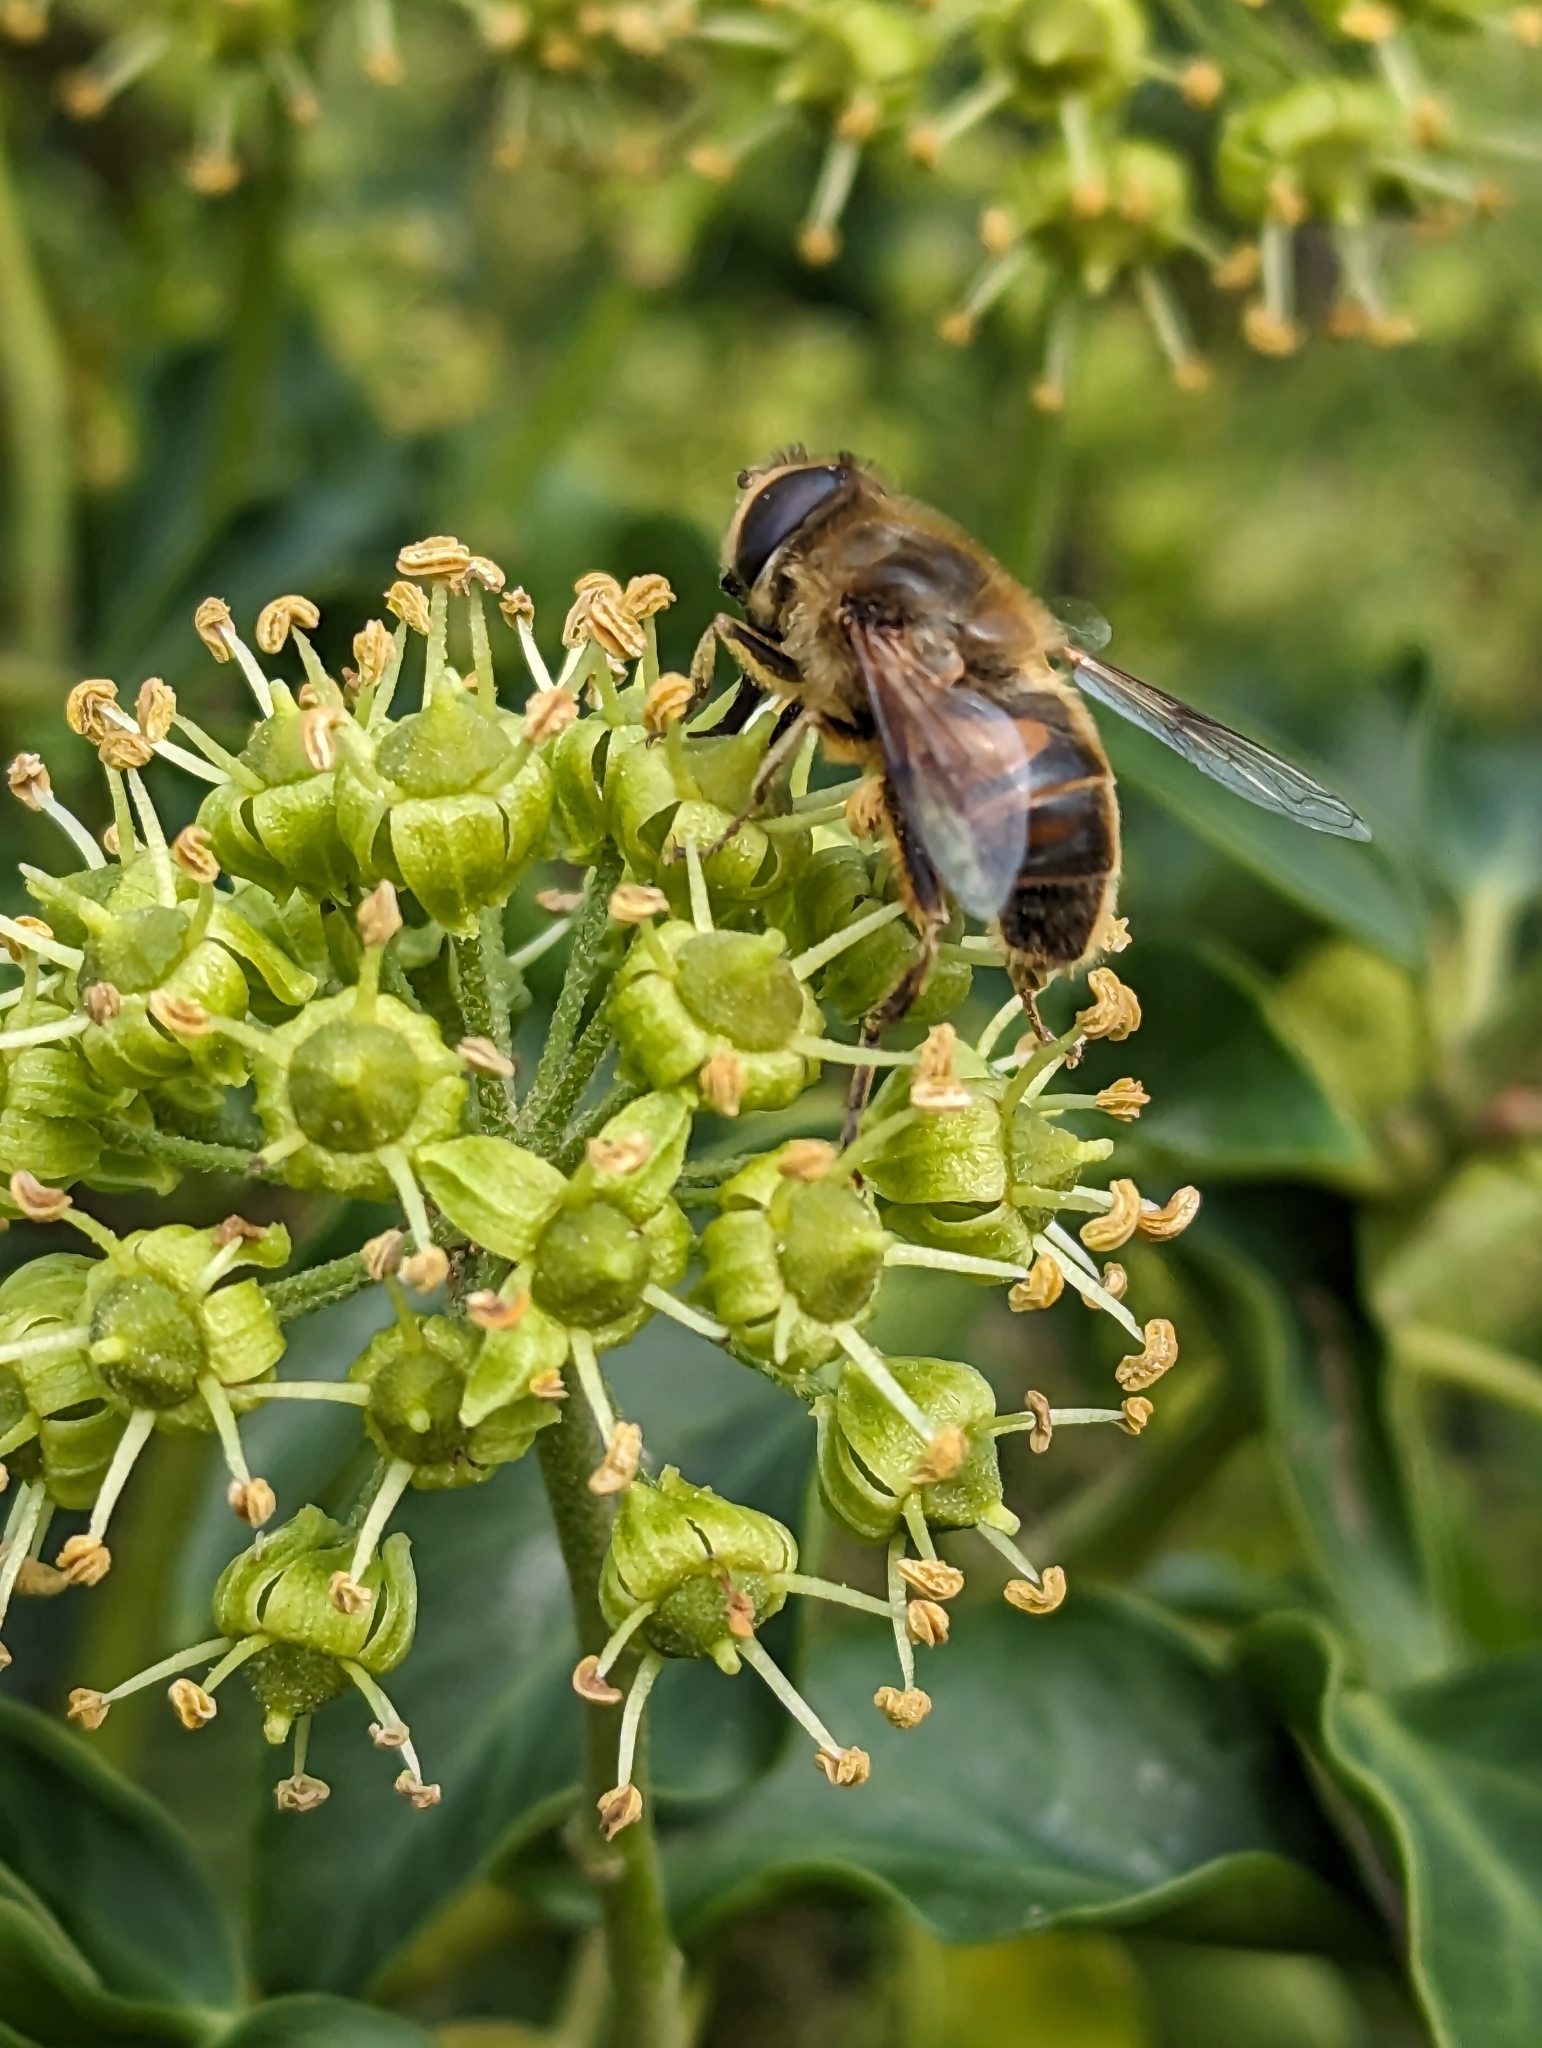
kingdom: Animalia
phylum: Arthropoda
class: Insecta
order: Diptera
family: Syrphidae
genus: Eristalis
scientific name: Eristalis tenax
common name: Drone fly
